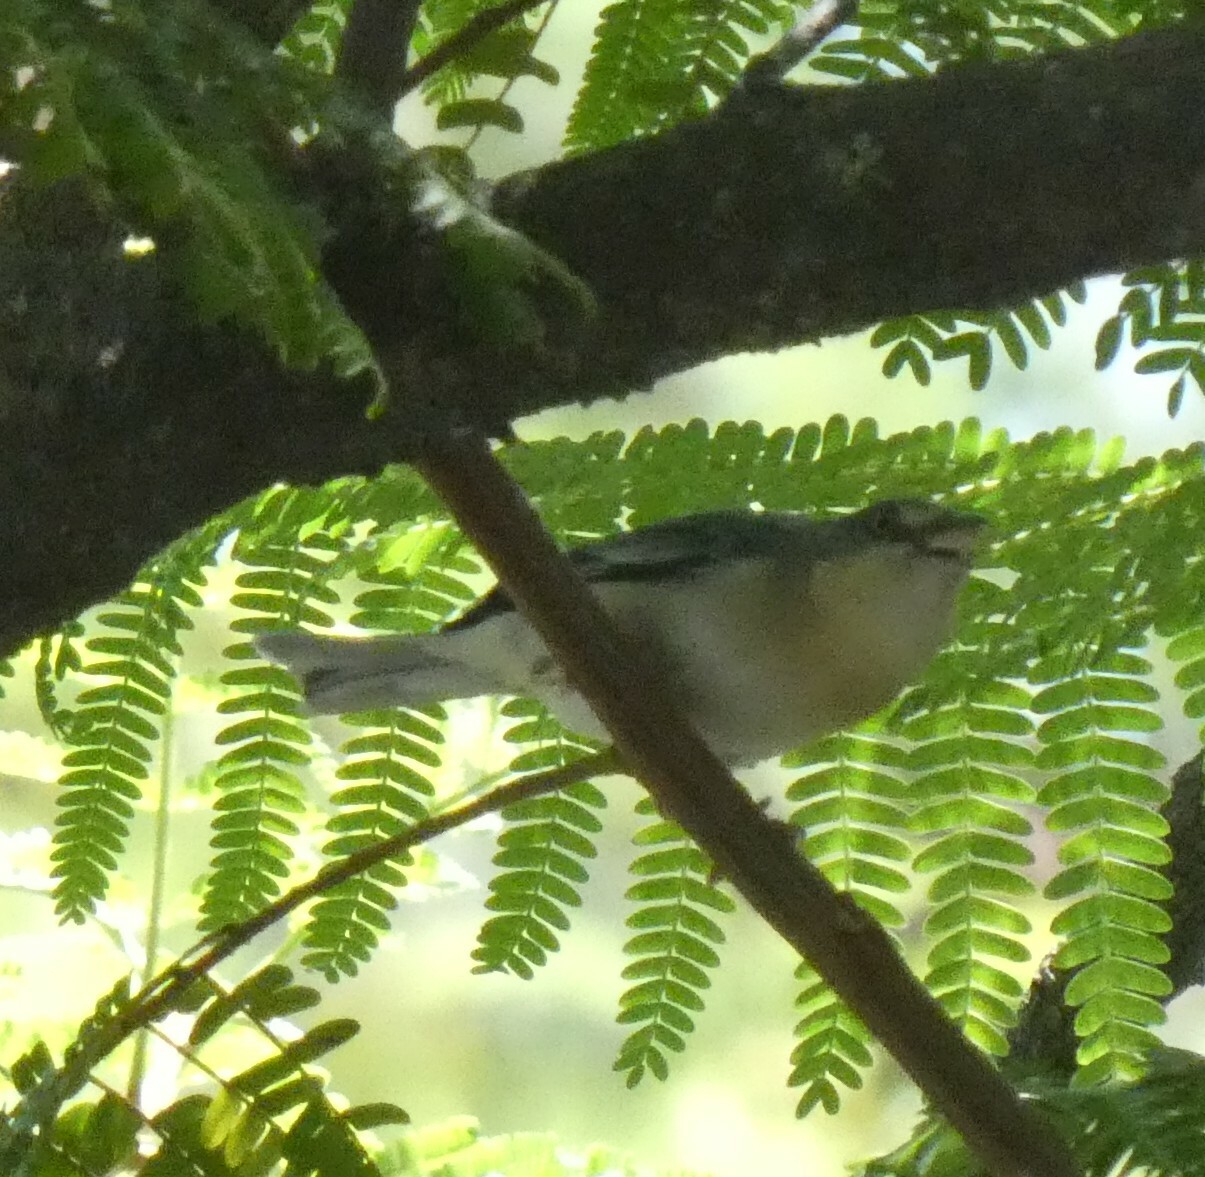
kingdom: Animalia
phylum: Chordata
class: Aves
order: Passeriformes
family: Thraupidae
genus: Nemosia
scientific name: Nemosia pileata
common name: Hooded tanager
